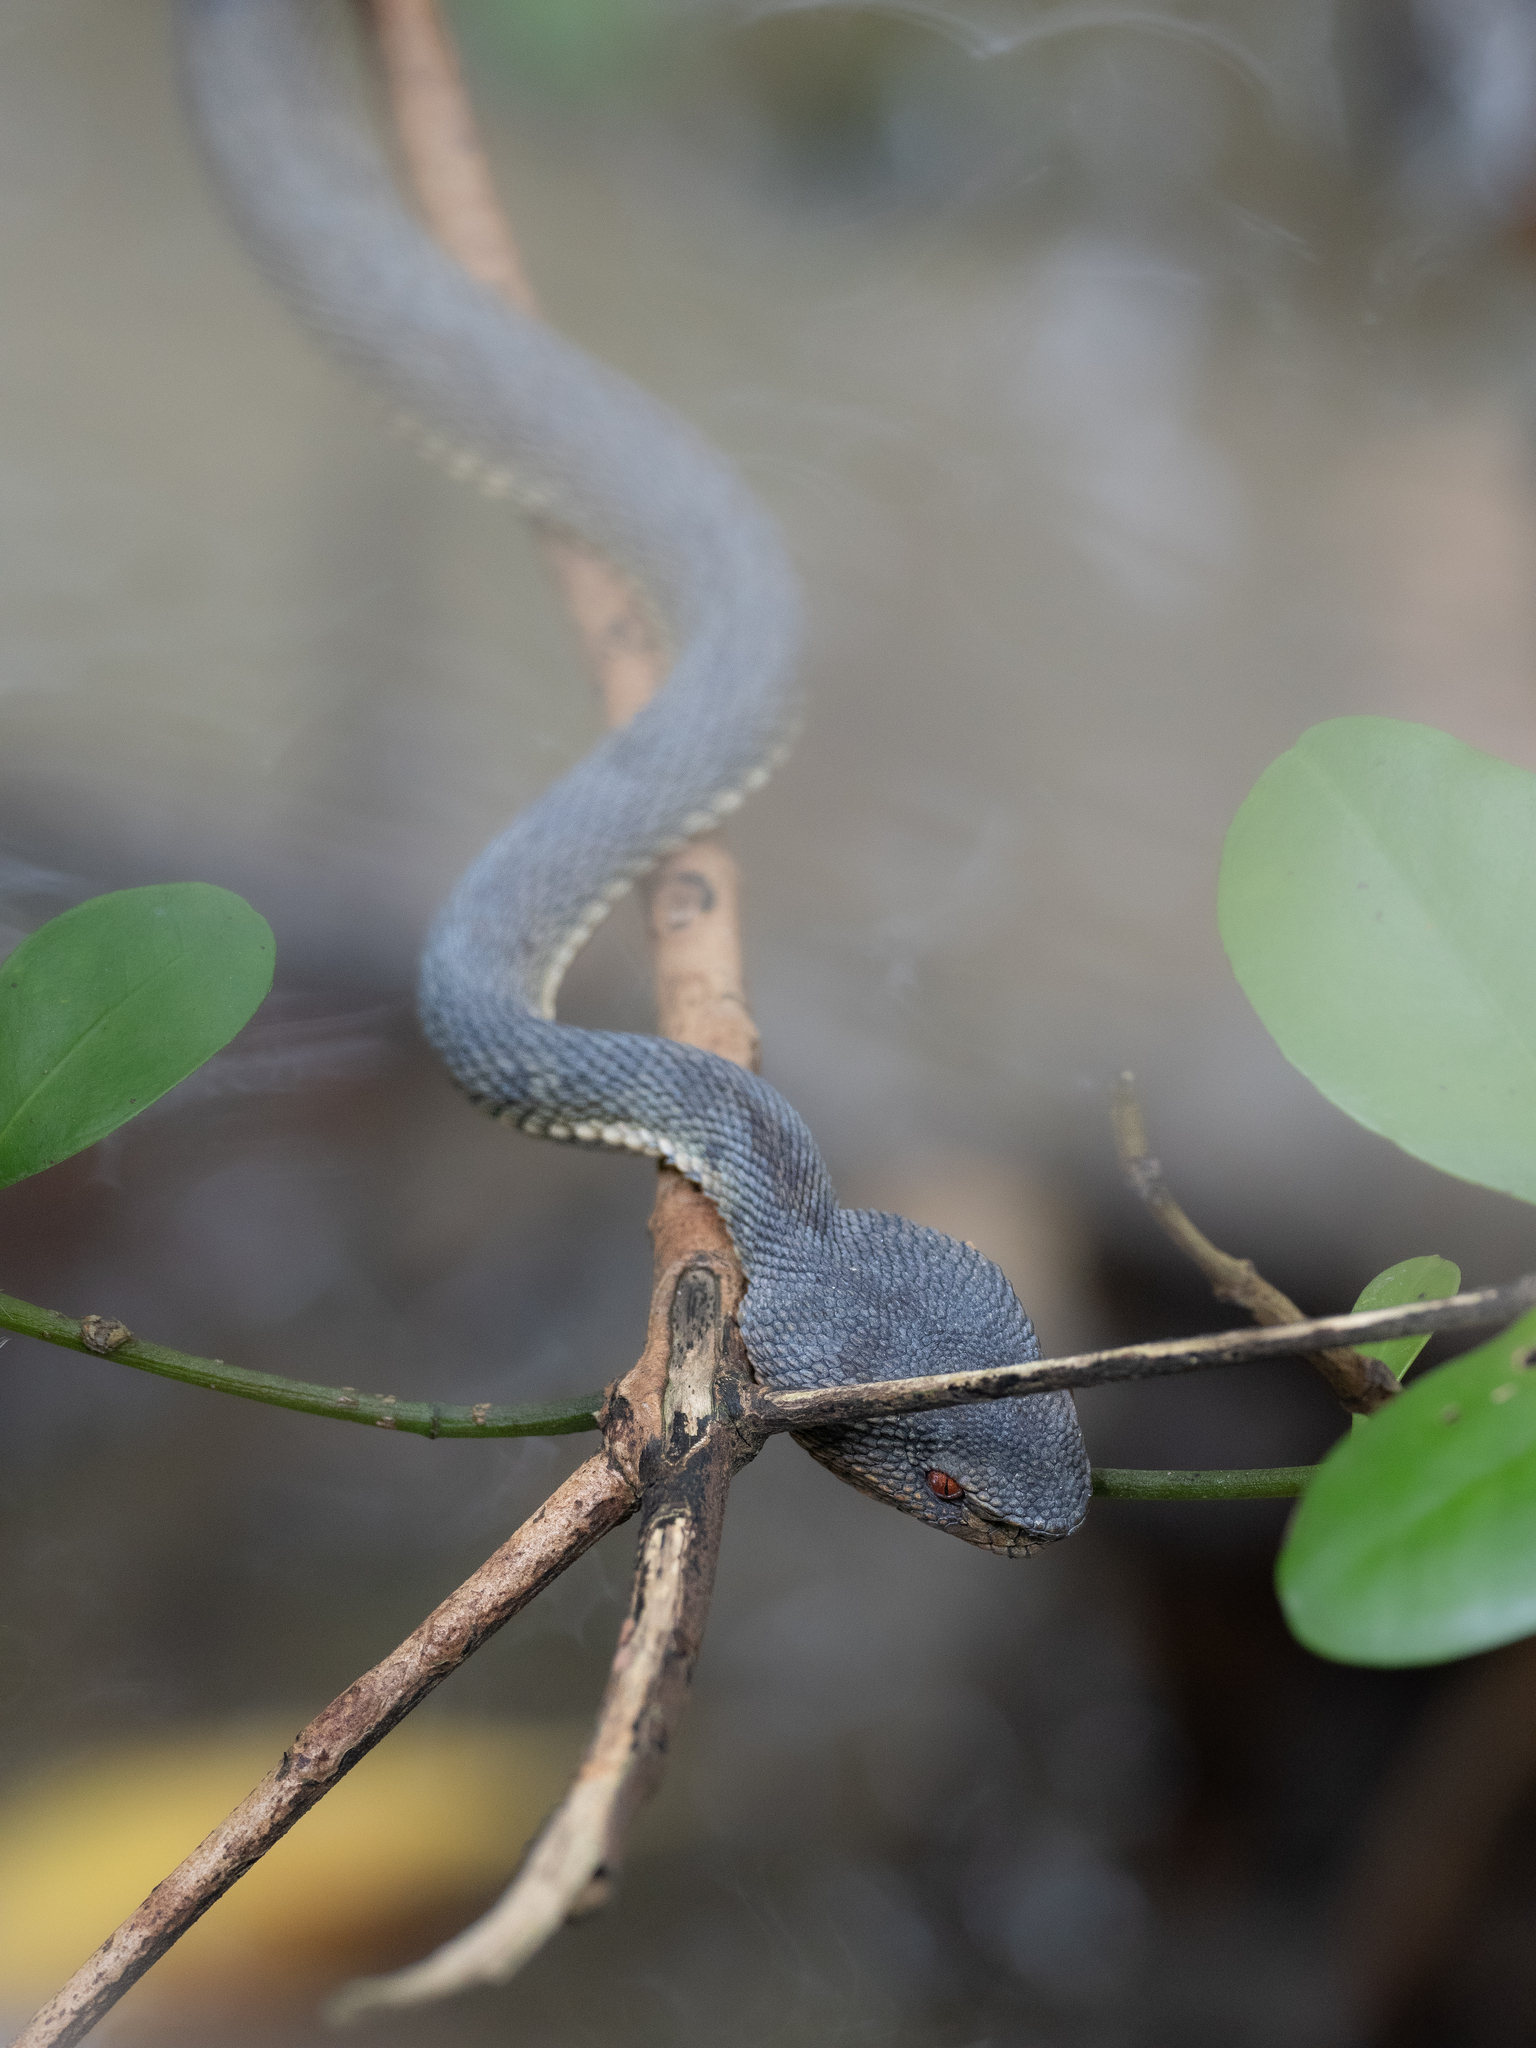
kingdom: Animalia
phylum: Chordata
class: Squamata
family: Viperidae
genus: Trimeresurus
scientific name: Trimeresurus purpureomaculatus
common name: Shore pit viper
